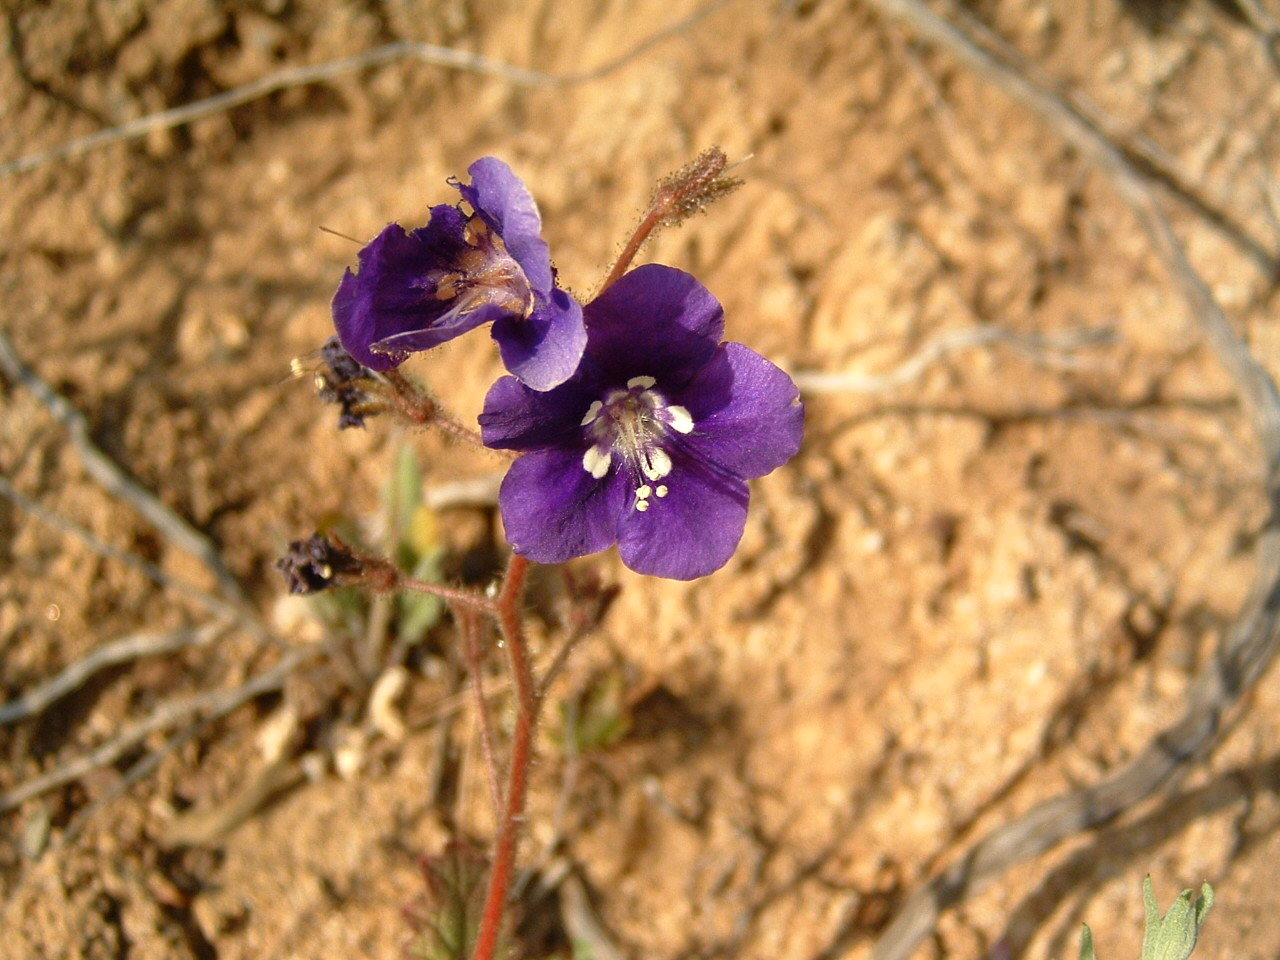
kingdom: Plantae
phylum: Tracheophyta
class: Magnoliopsida
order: Boraginales
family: Hydrophyllaceae
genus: Phacelia
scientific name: Phacelia parryi
